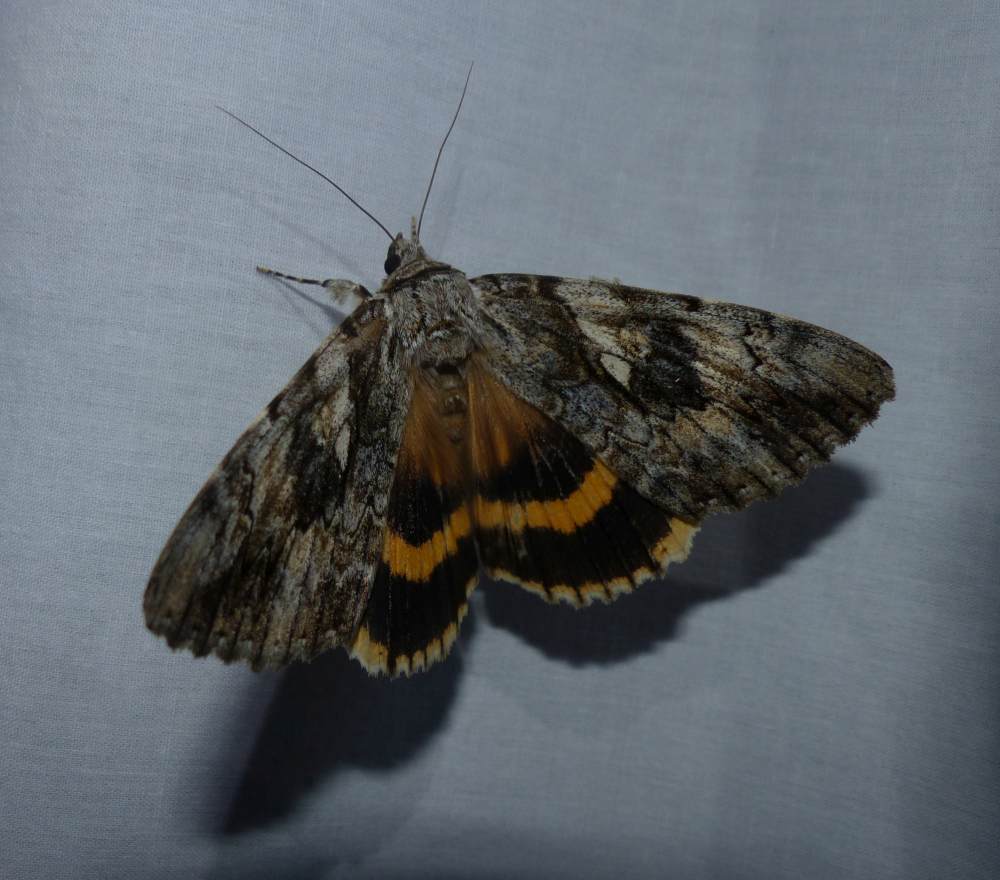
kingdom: Animalia
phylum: Arthropoda
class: Insecta
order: Lepidoptera
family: Erebidae
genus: Catocala
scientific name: Catocala cerogama
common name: Yellow banded underwing
